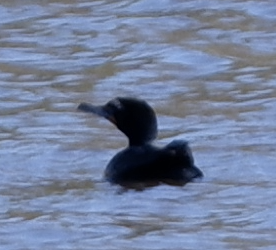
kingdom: Animalia
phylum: Chordata
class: Aves
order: Suliformes
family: Phalacrocoracidae
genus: Phalacrocorax
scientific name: Phalacrocorax auritus
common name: Double-crested cormorant
